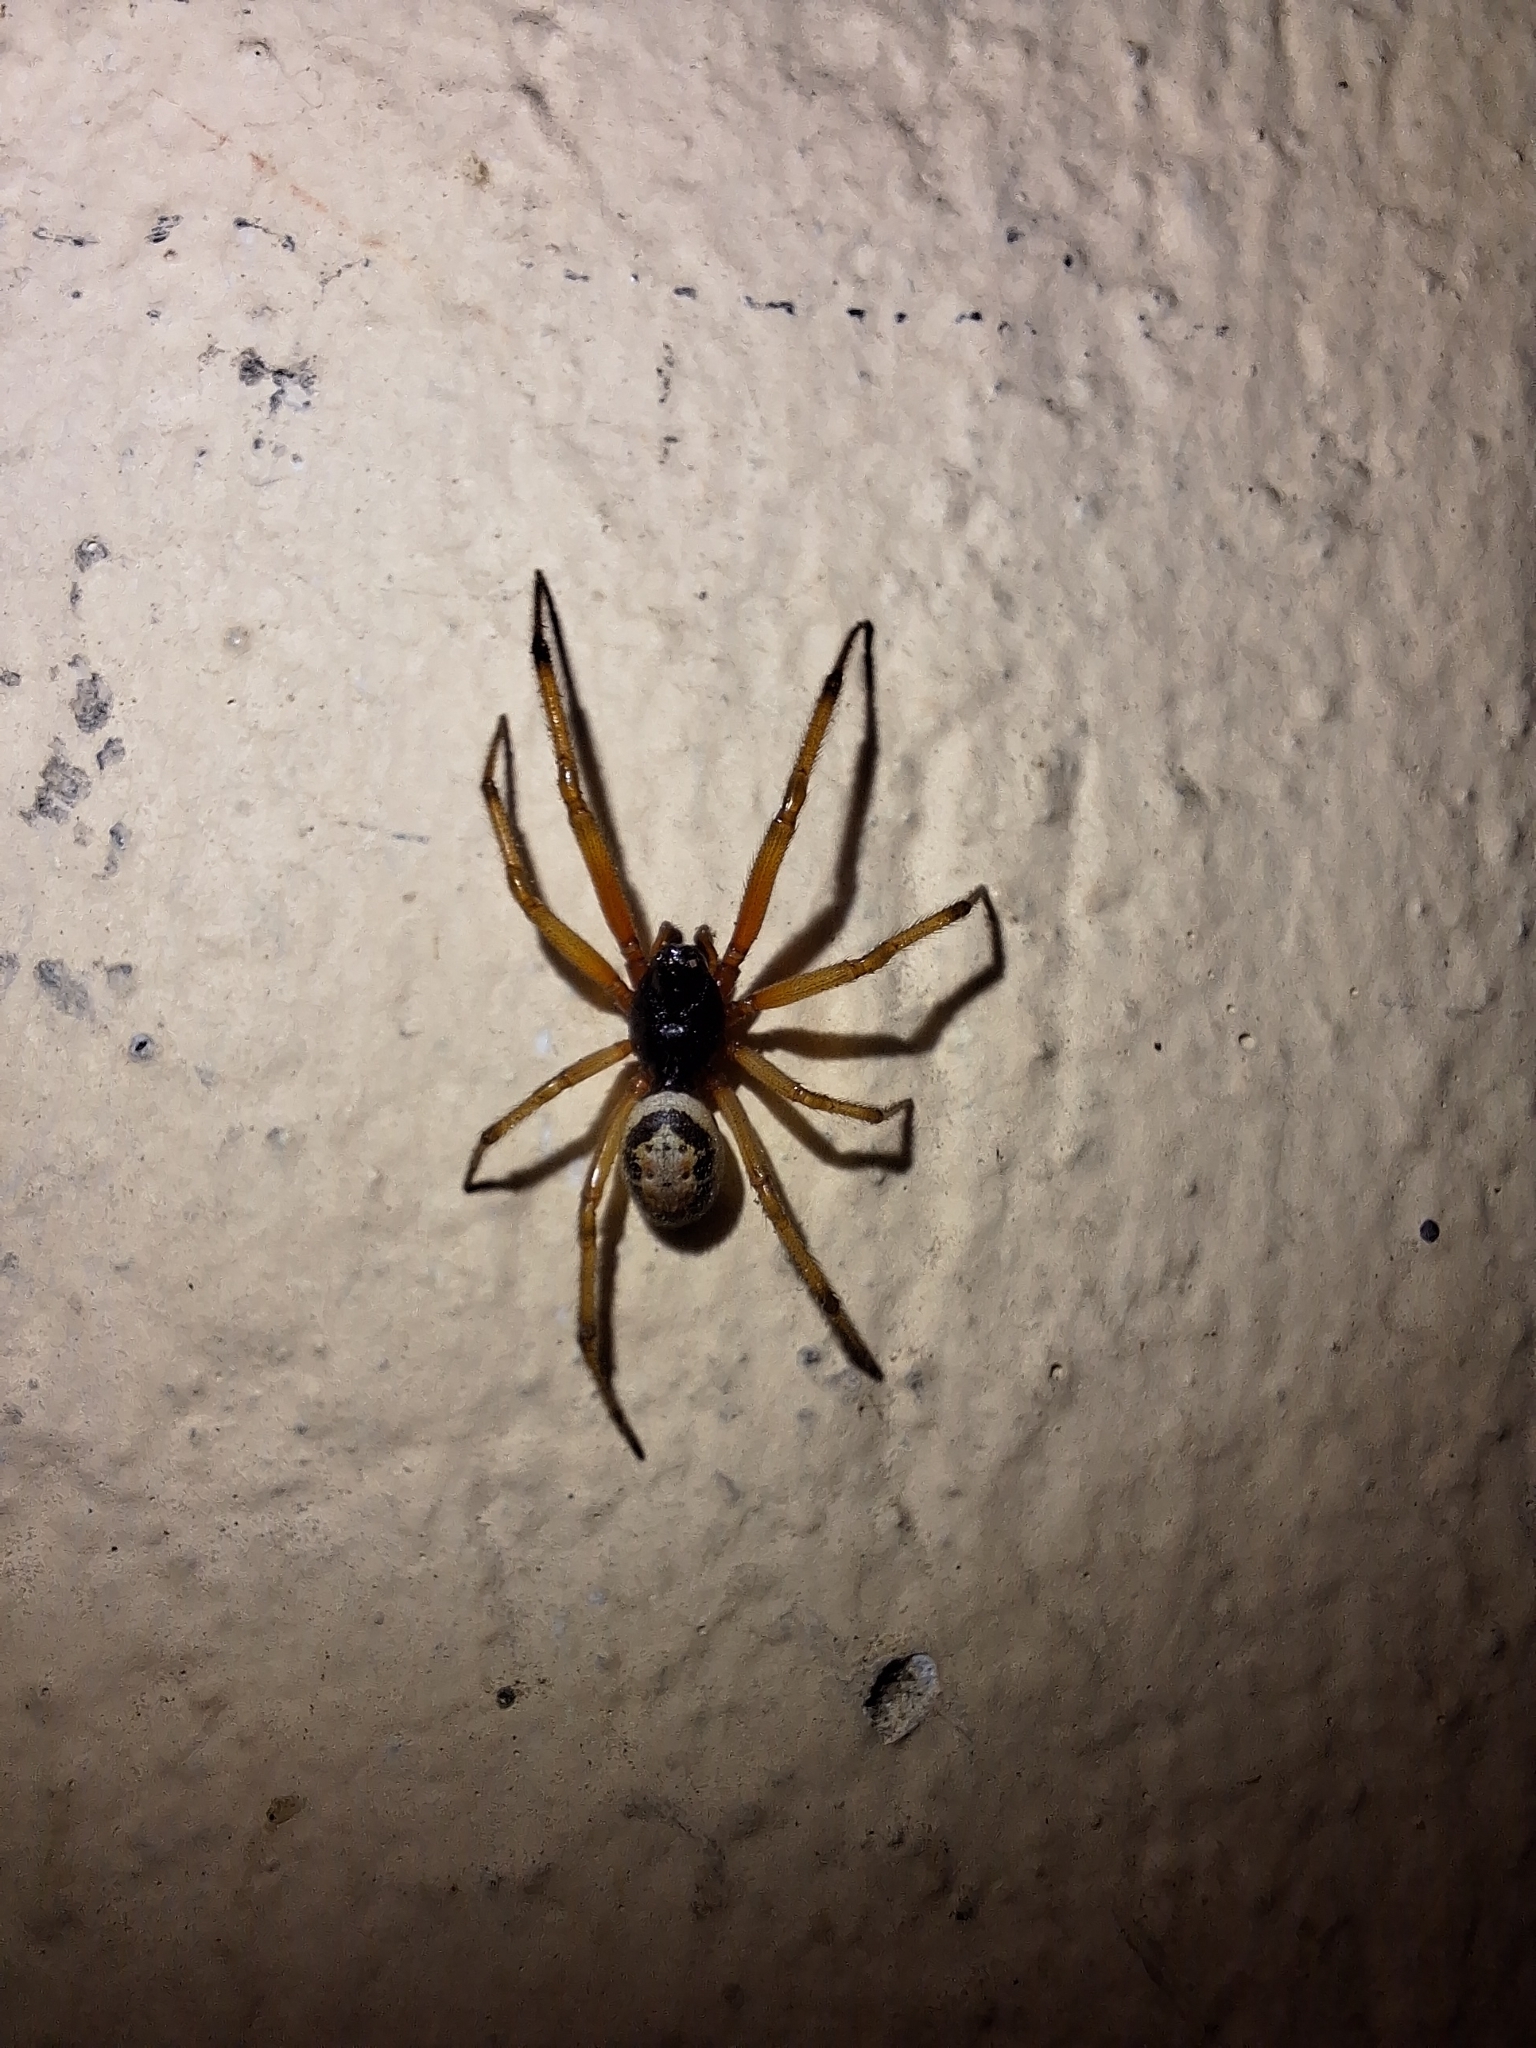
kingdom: Animalia
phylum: Arthropoda
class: Arachnida
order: Araneae
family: Theridiidae
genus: Steatoda
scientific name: Steatoda nobilis
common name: Cobweb weaver
